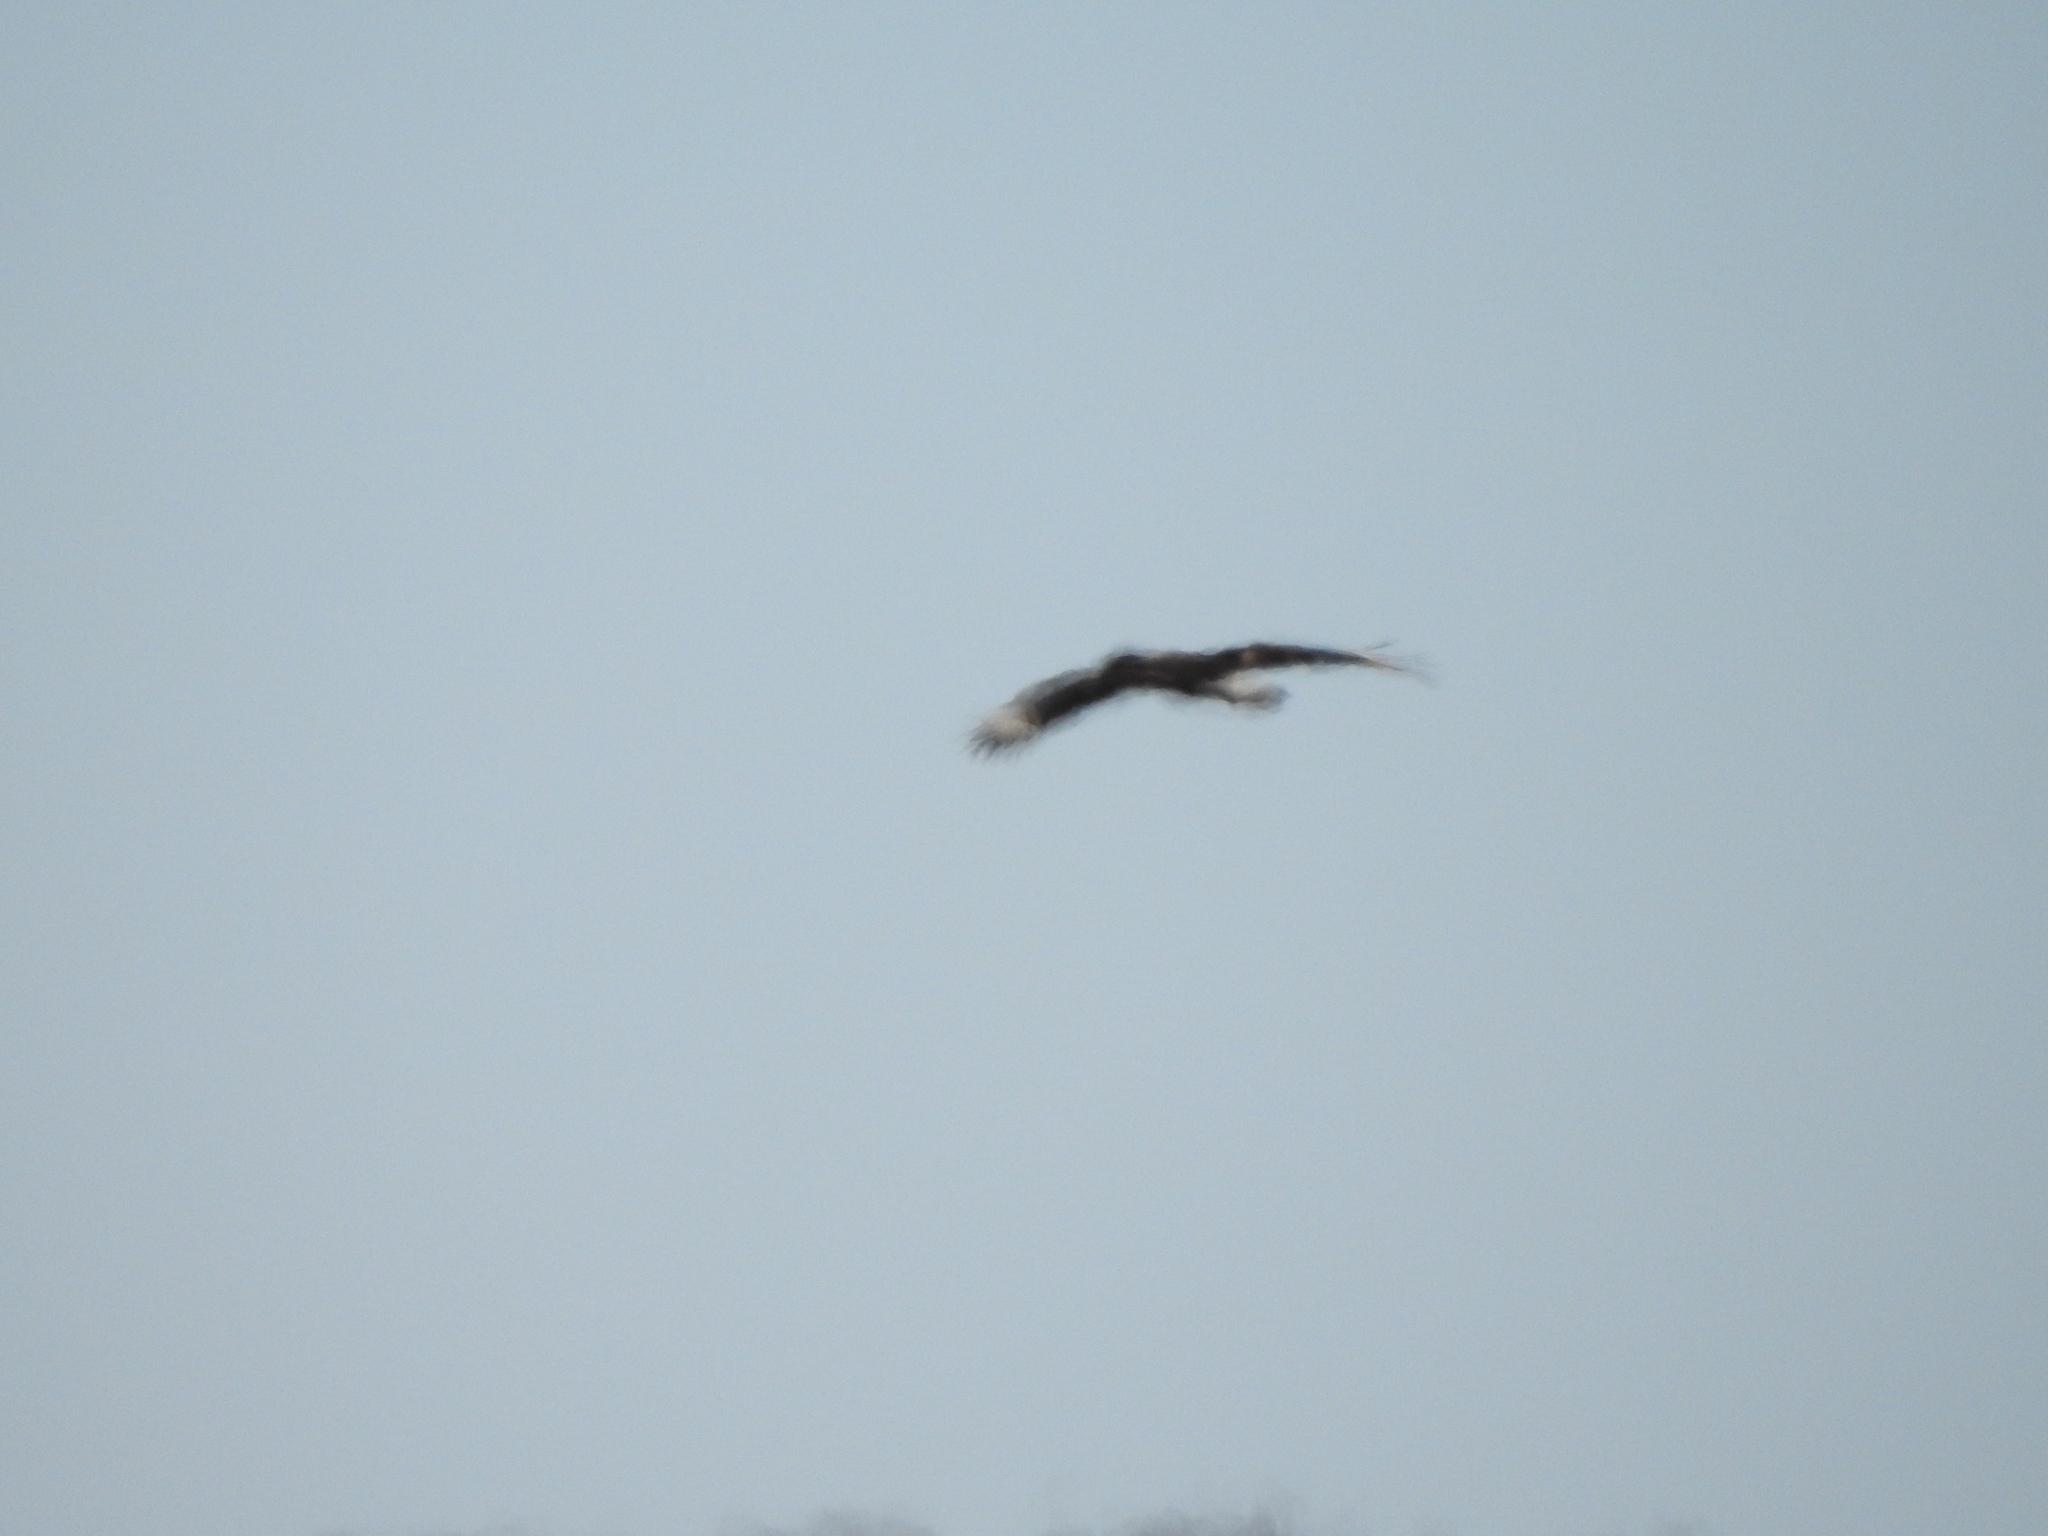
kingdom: Animalia
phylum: Chordata
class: Aves
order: Falconiformes
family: Falconidae
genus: Caracara
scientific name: Caracara plancus
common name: Southern caracara
